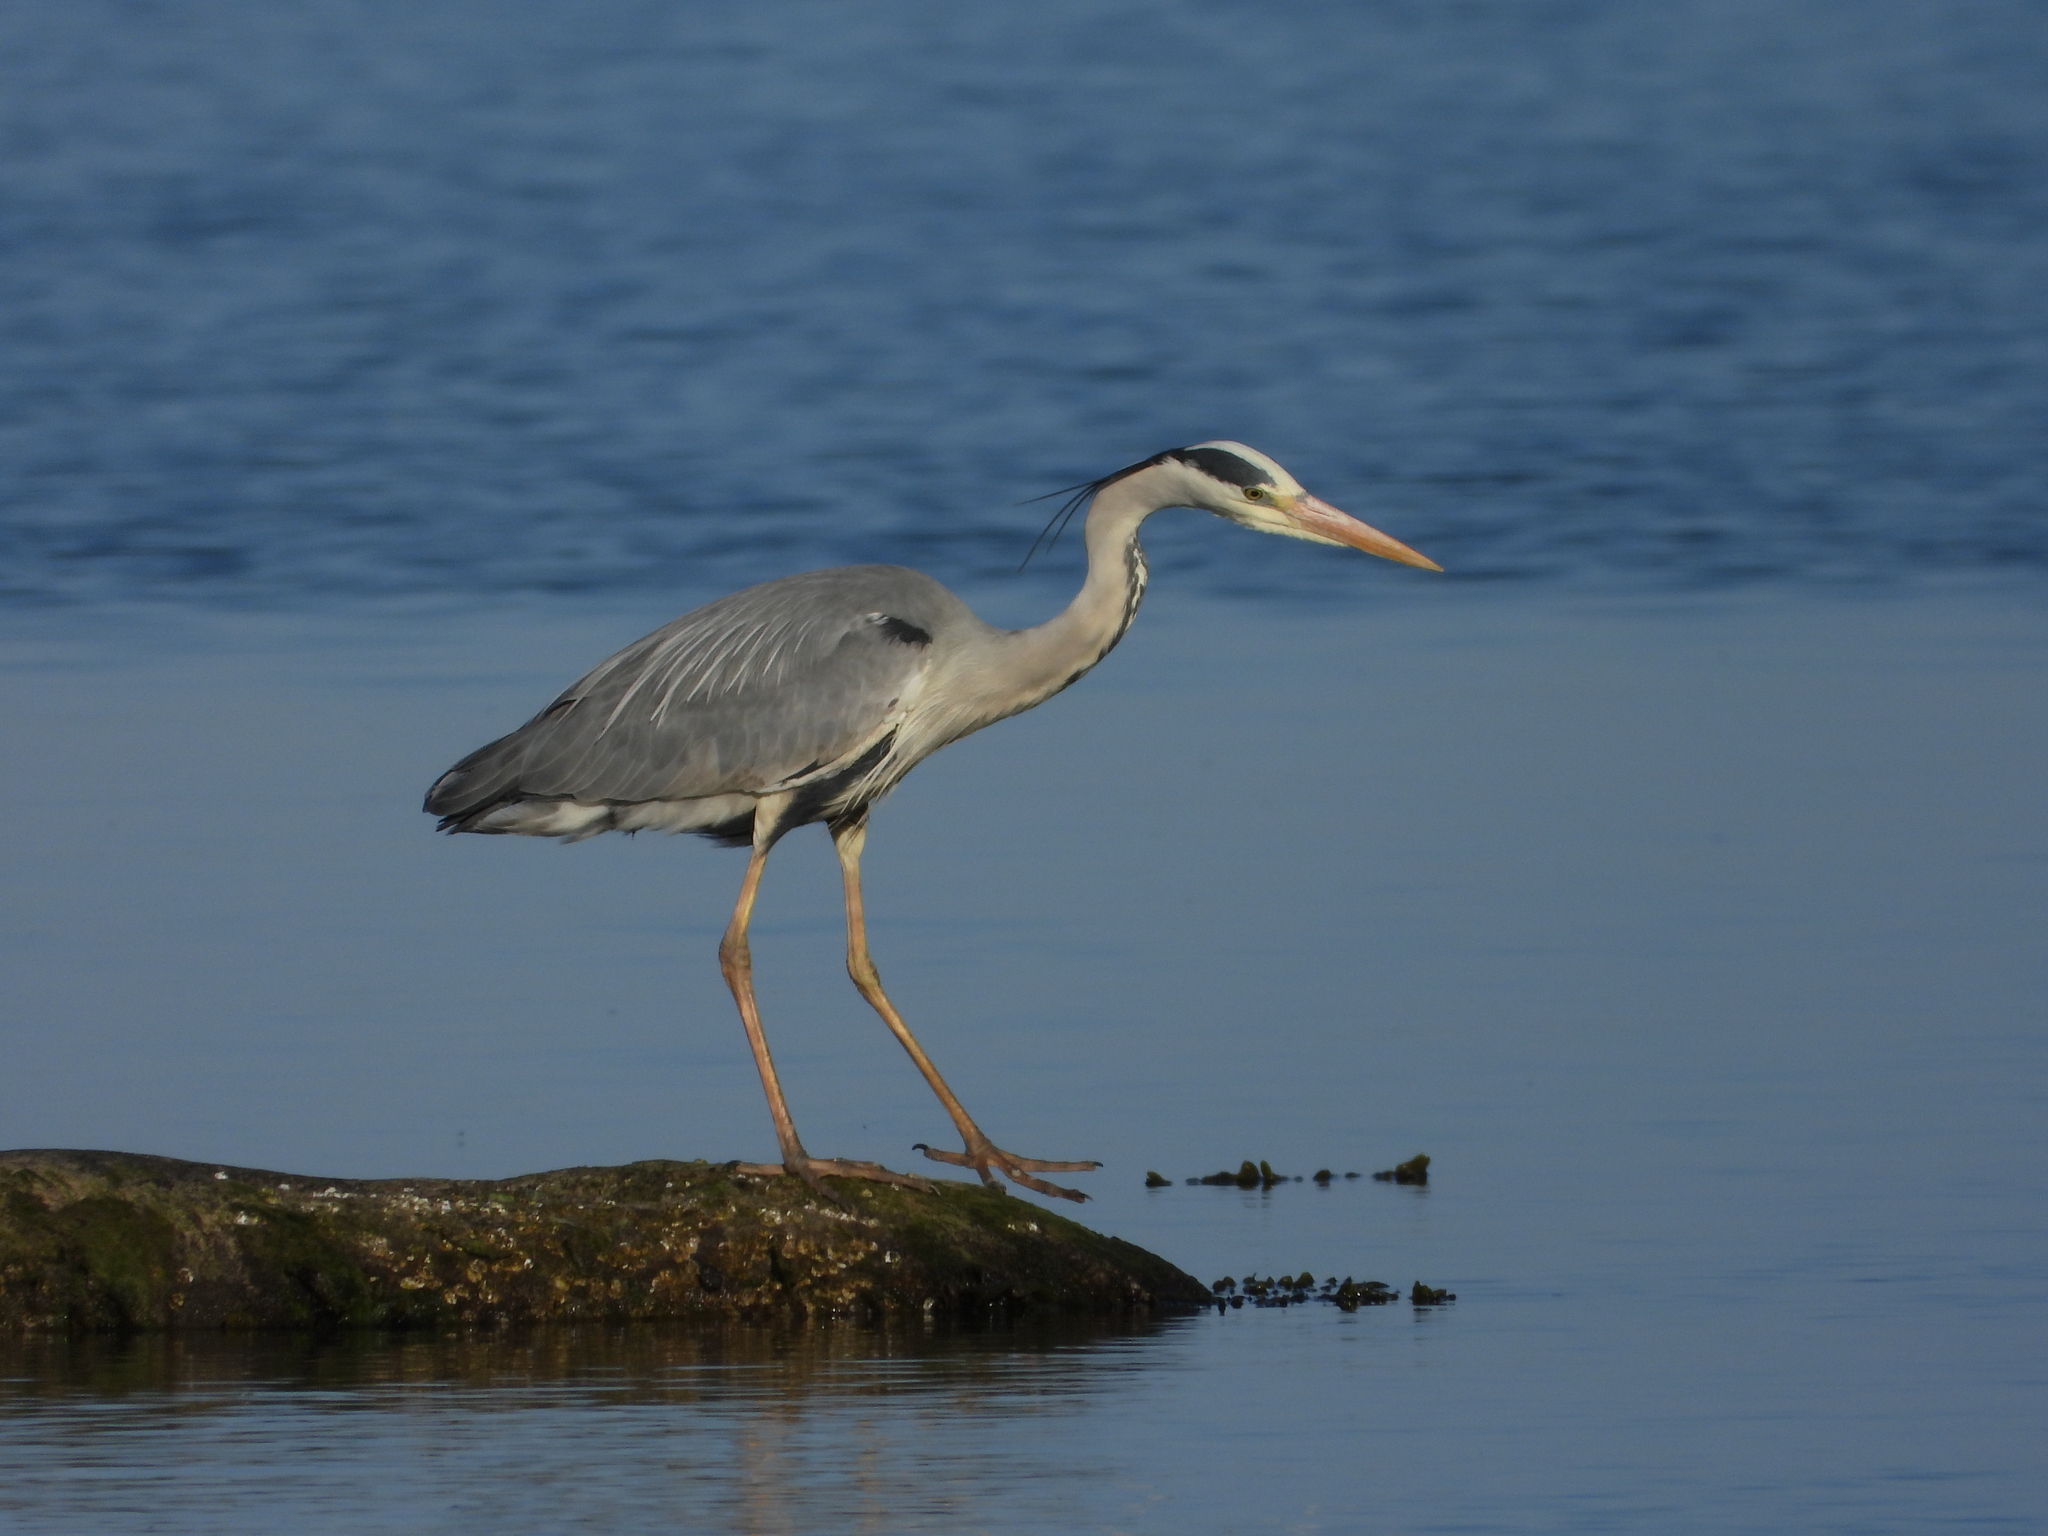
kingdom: Animalia
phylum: Chordata
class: Aves
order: Pelecaniformes
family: Ardeidae
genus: Ardea
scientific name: Ardea cinerea
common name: Grey heron
